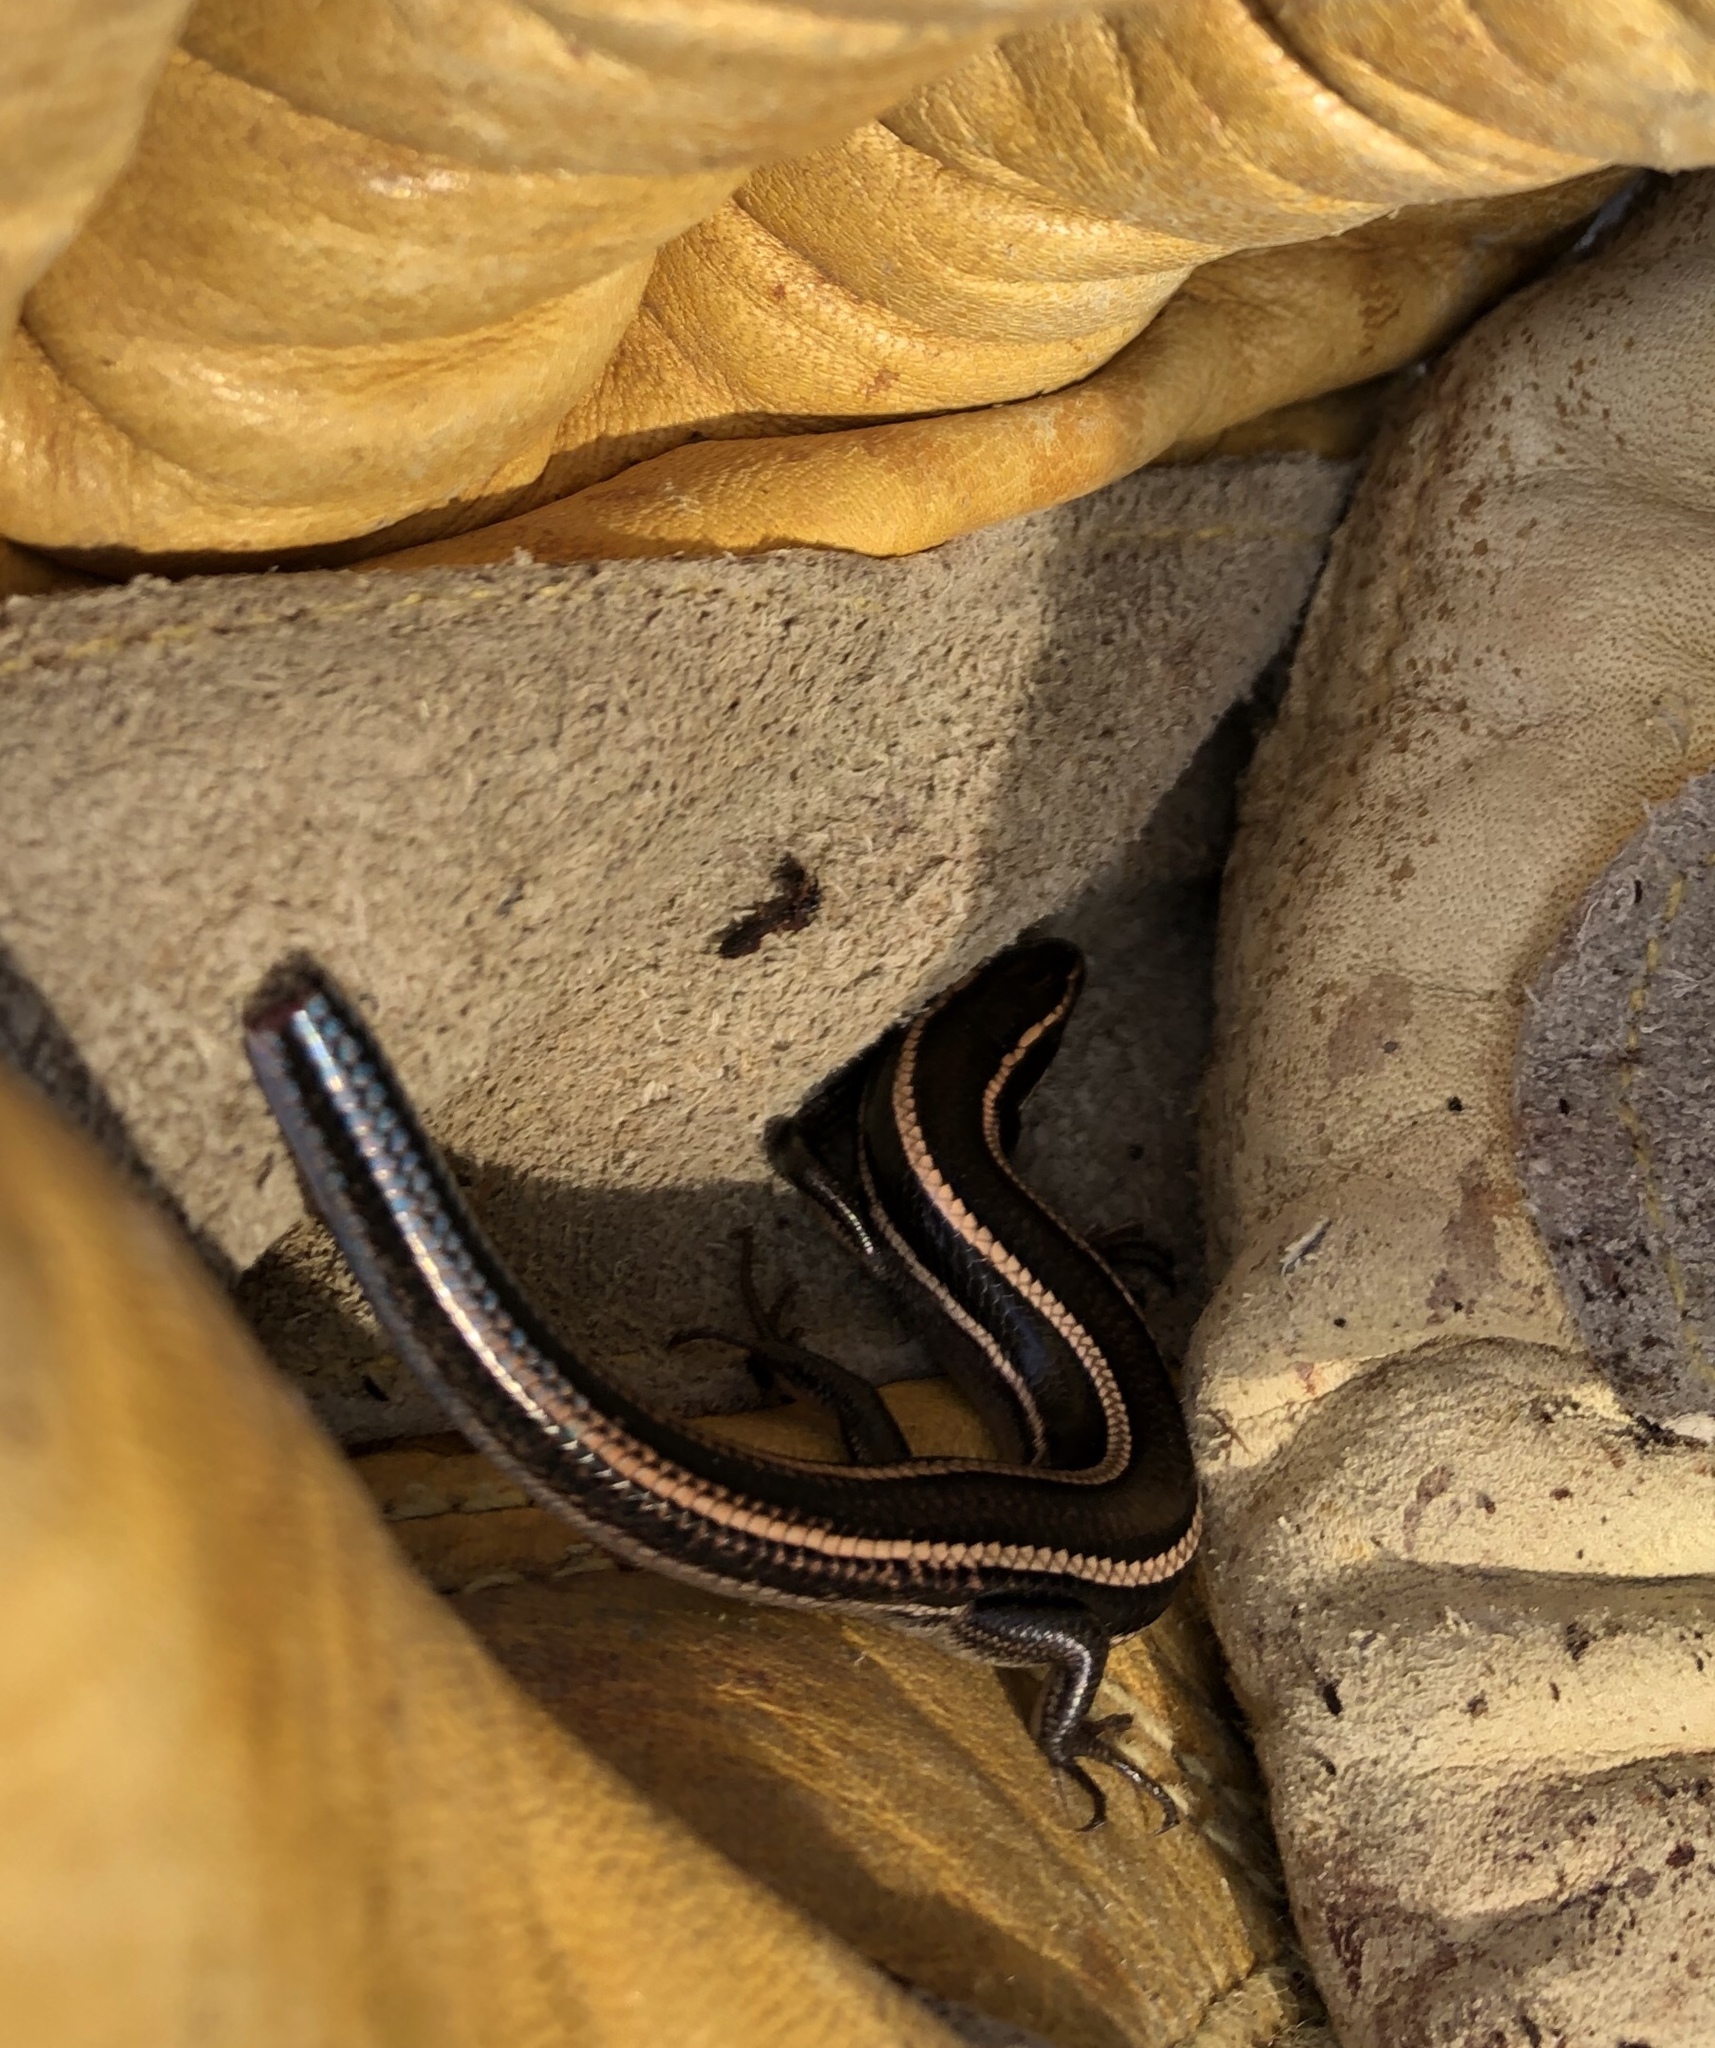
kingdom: Animalia
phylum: Chordata
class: Squamata
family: Scincidae
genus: Plestiodon
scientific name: Plestiodon skiltonianus
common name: Coronado island skink [interparietalis]
